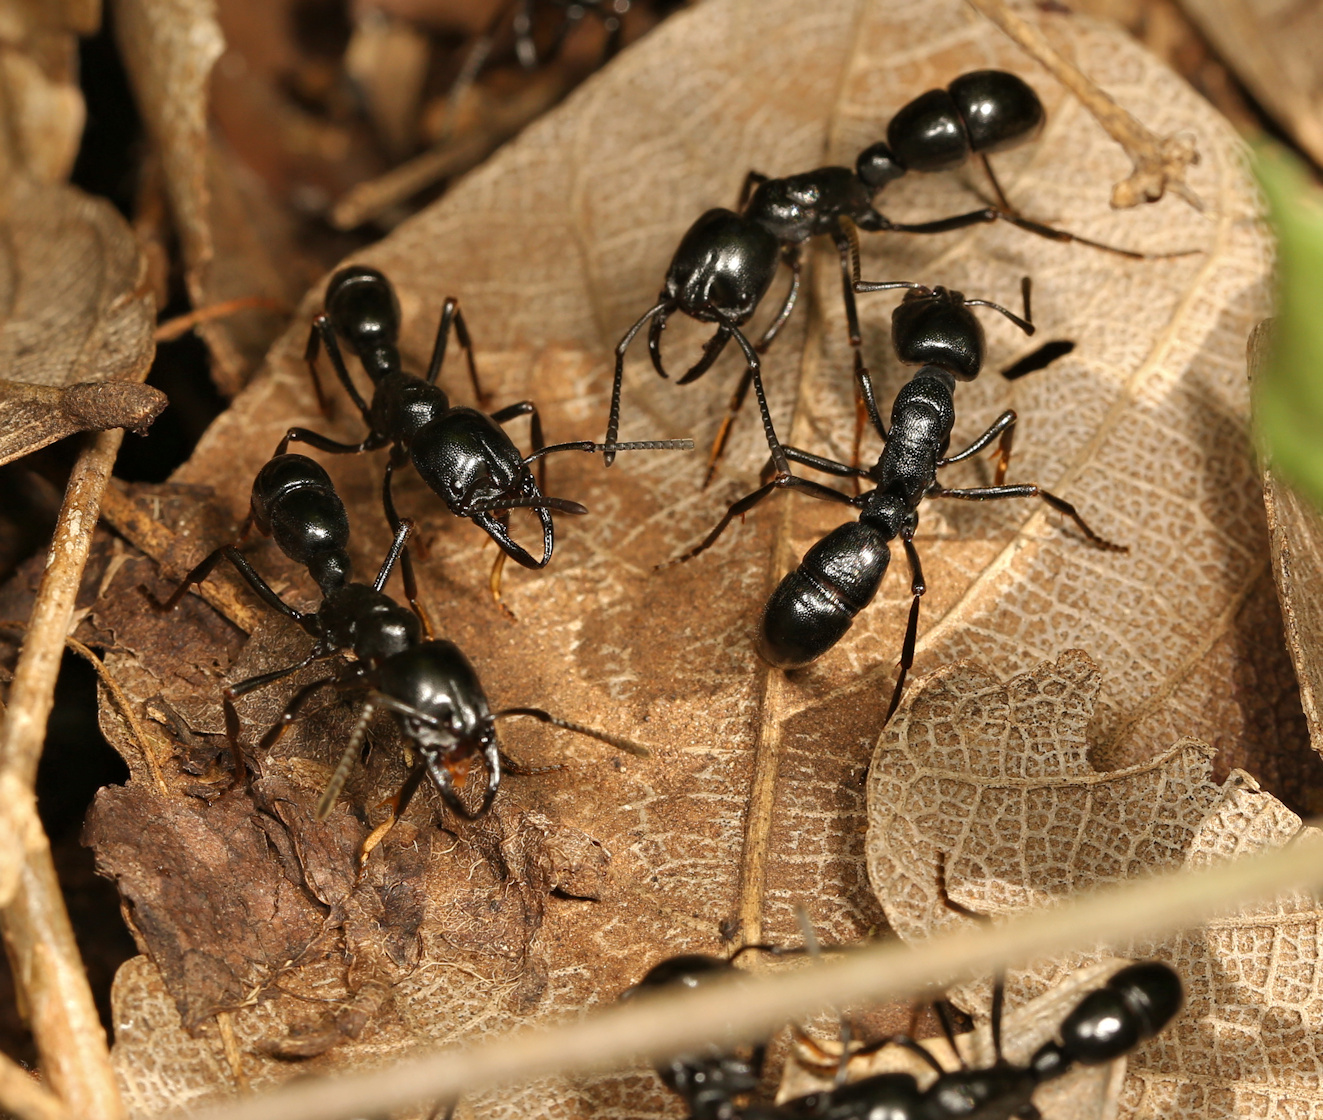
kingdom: Animalia
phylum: Arthropoda
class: Insecta
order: Hymenoptera
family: Formicidae
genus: Plectroctena
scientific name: Plectroctena mandibularis
